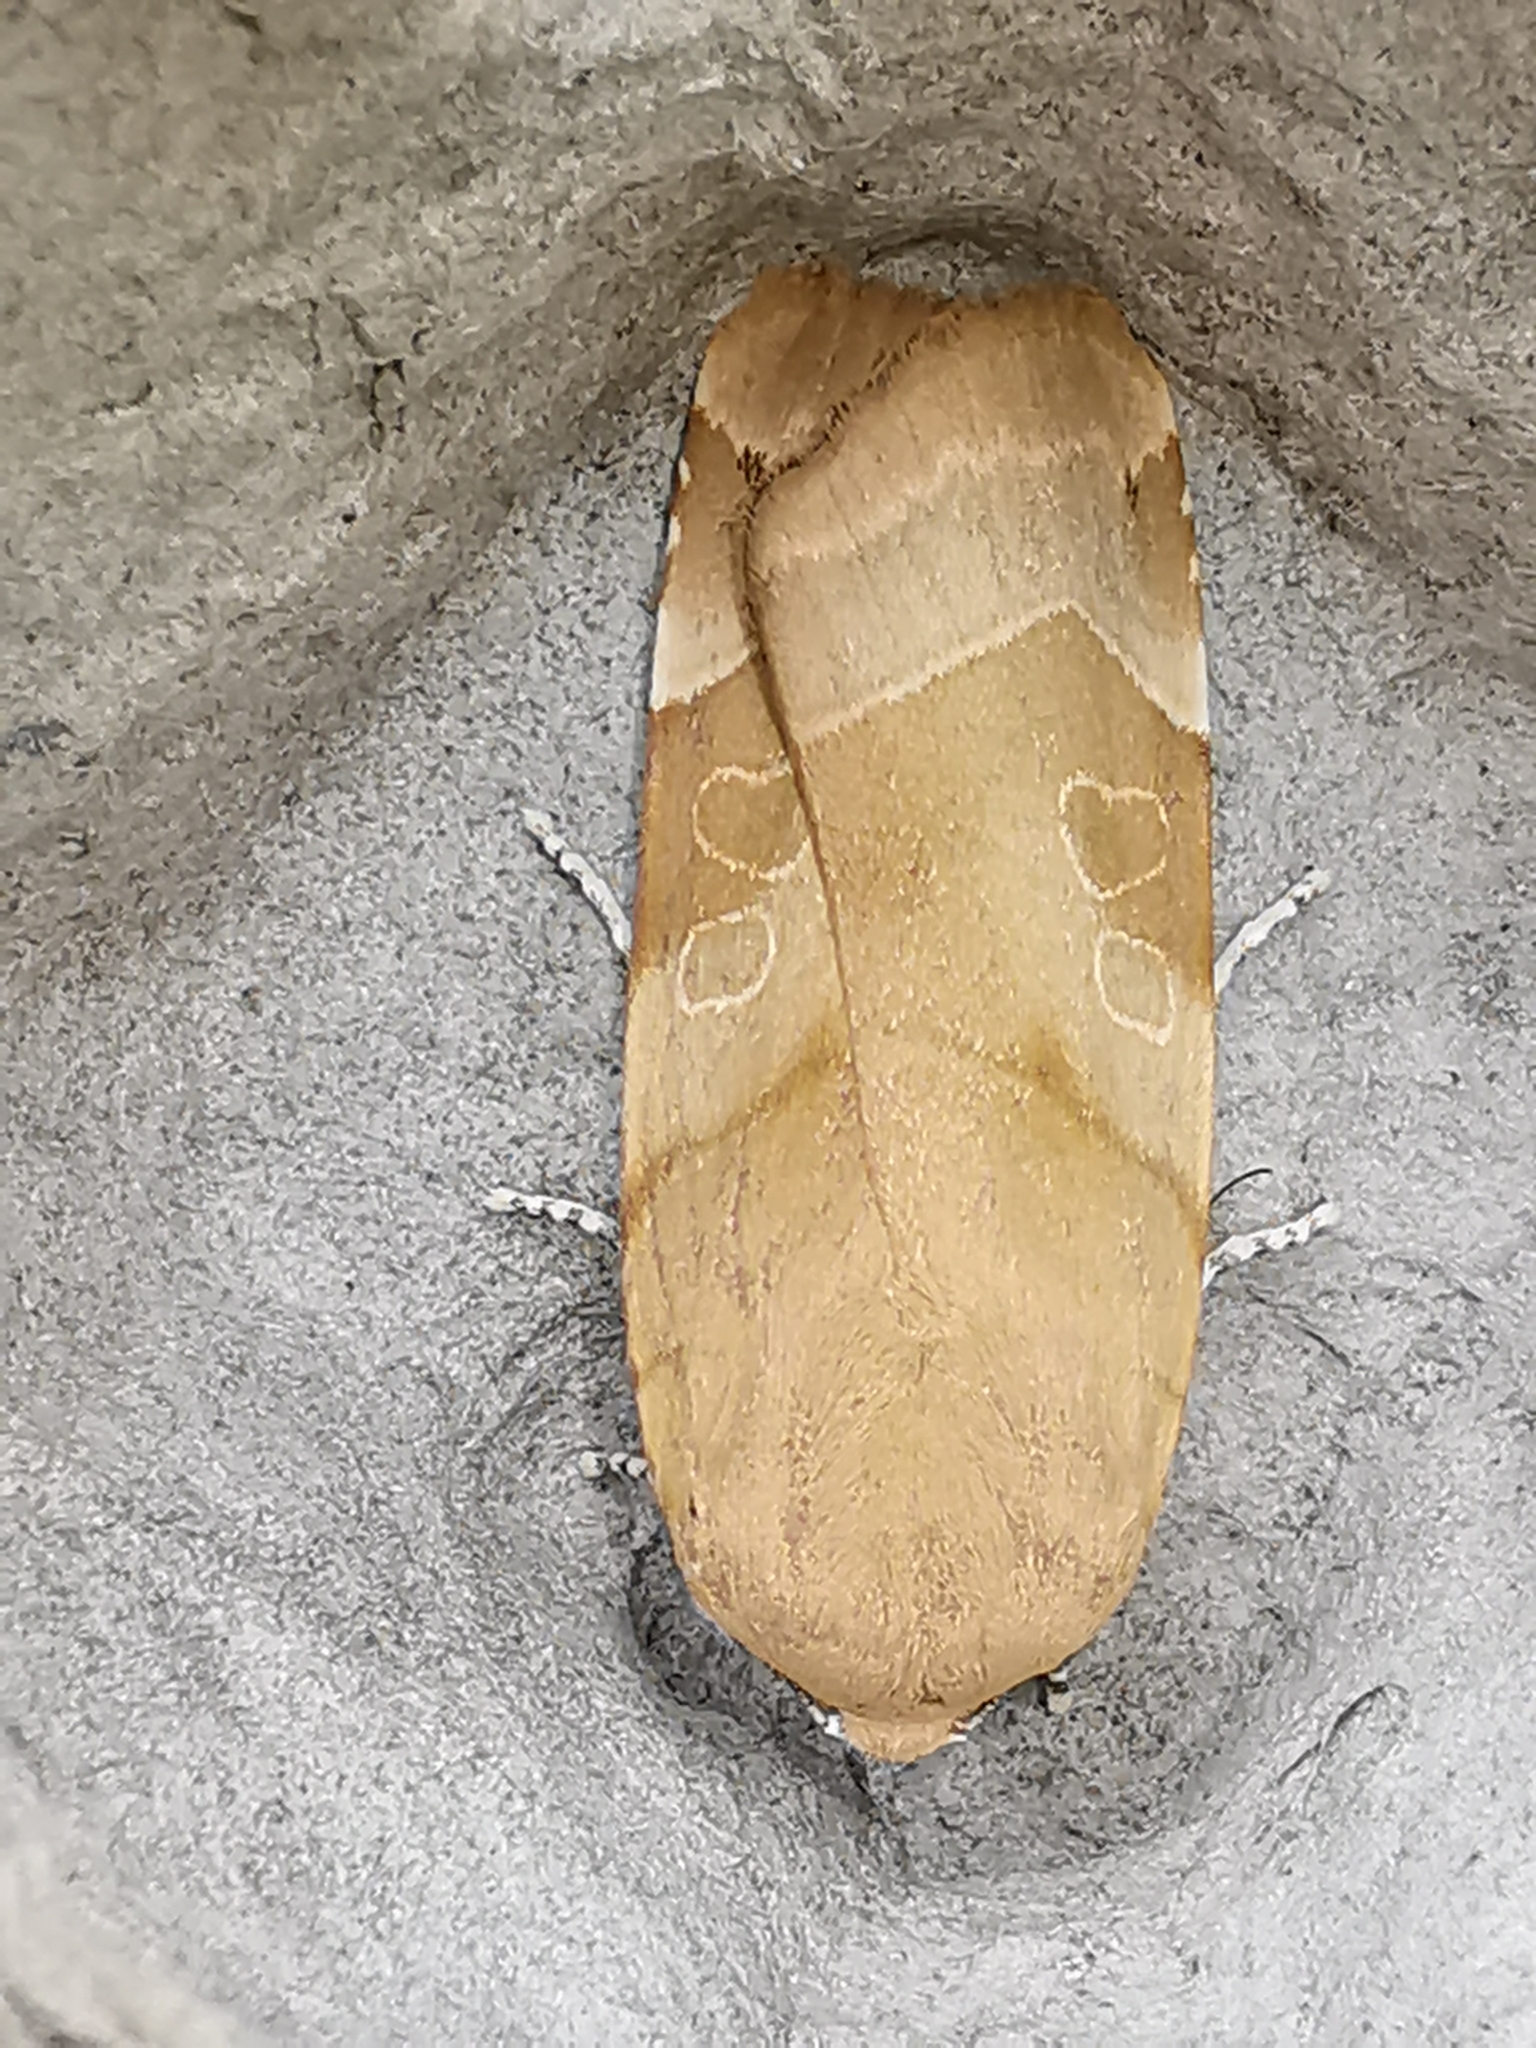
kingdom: Animalia
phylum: Arthropoda
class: Insecta
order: Lepidoptera
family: Noctuidae
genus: Noctua
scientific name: Noctua fimbriata
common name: Broad-bordered yellow underwing
